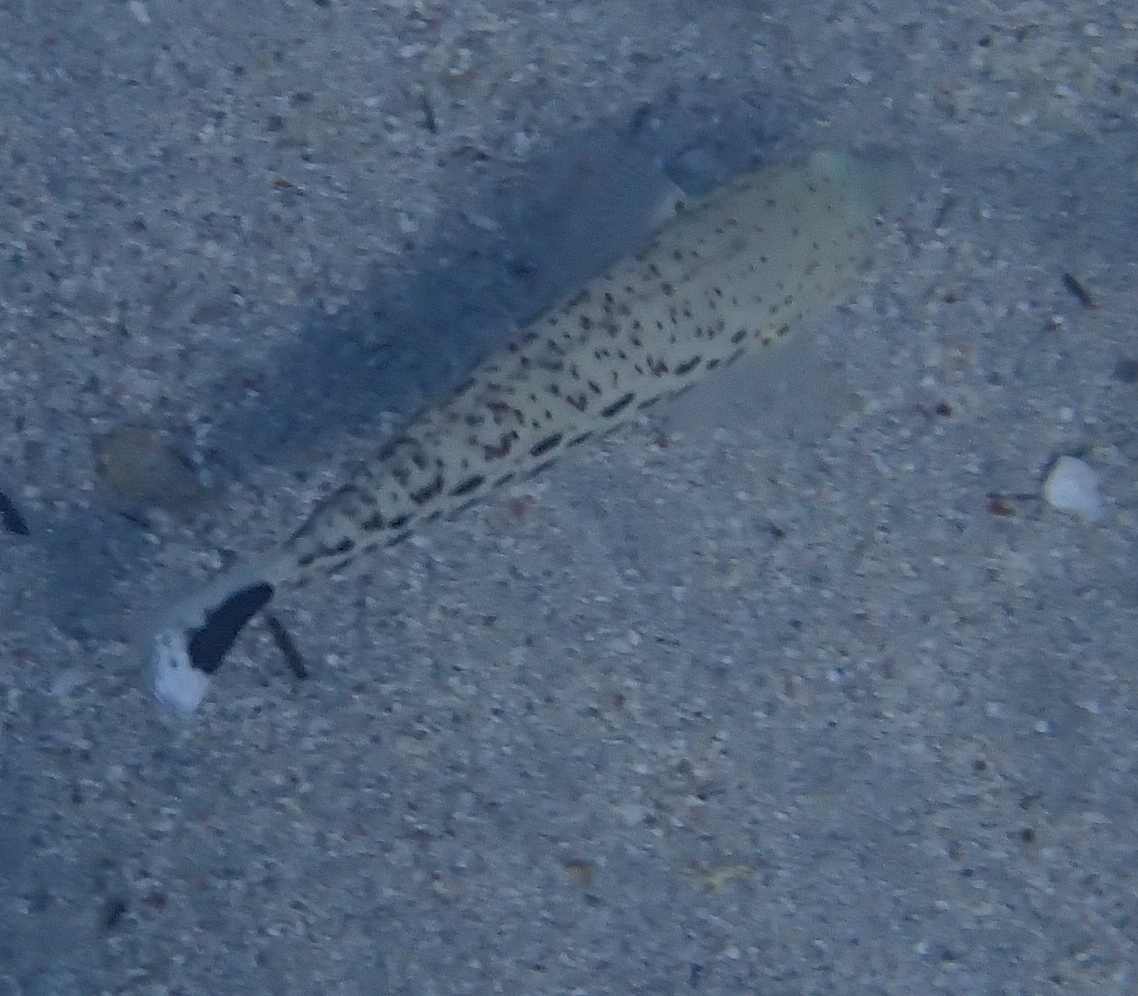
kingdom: Animalia
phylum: Chordata
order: Perciformes
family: Pinguipedidae
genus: Parapercis
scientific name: Parapercis hexophtalma
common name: Speckled sandperch
